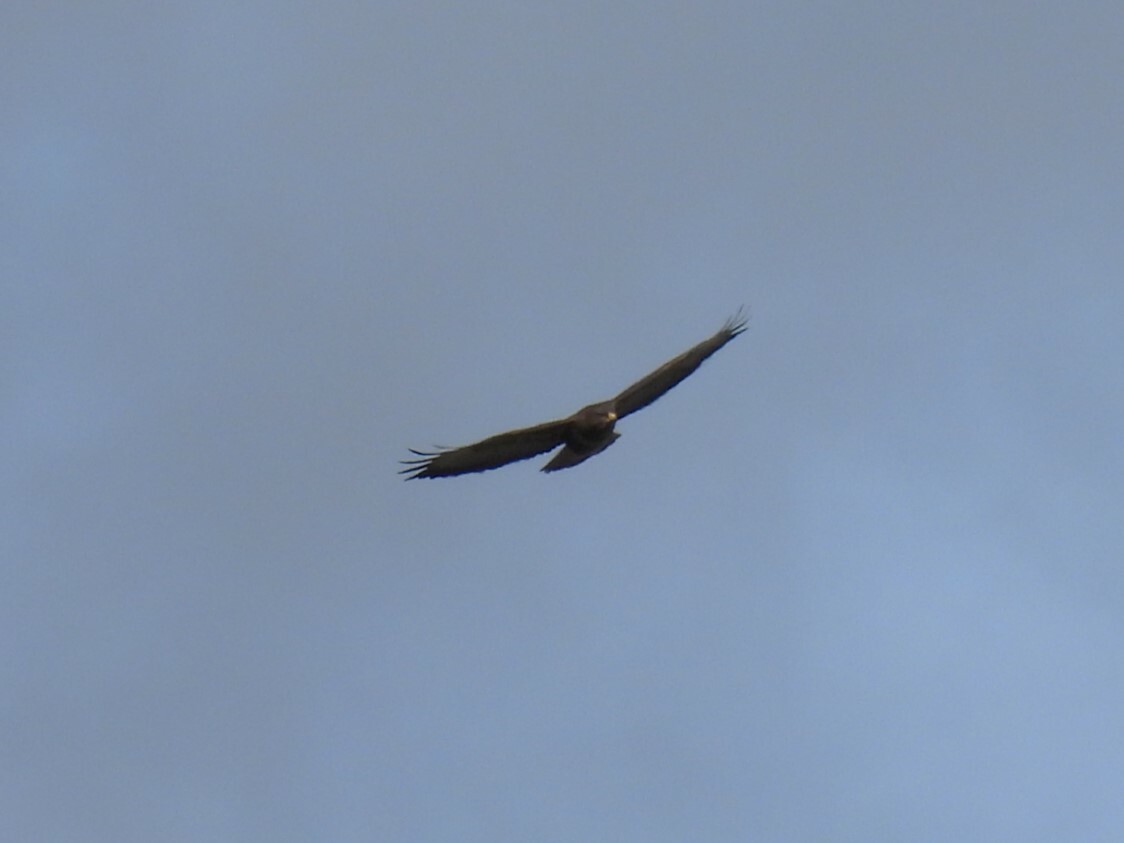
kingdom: Animalia
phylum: Chordata
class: Aves
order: Accipitriformes
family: Accipitridae
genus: Buteo
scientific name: Buteo buteo
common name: Common buzzard
